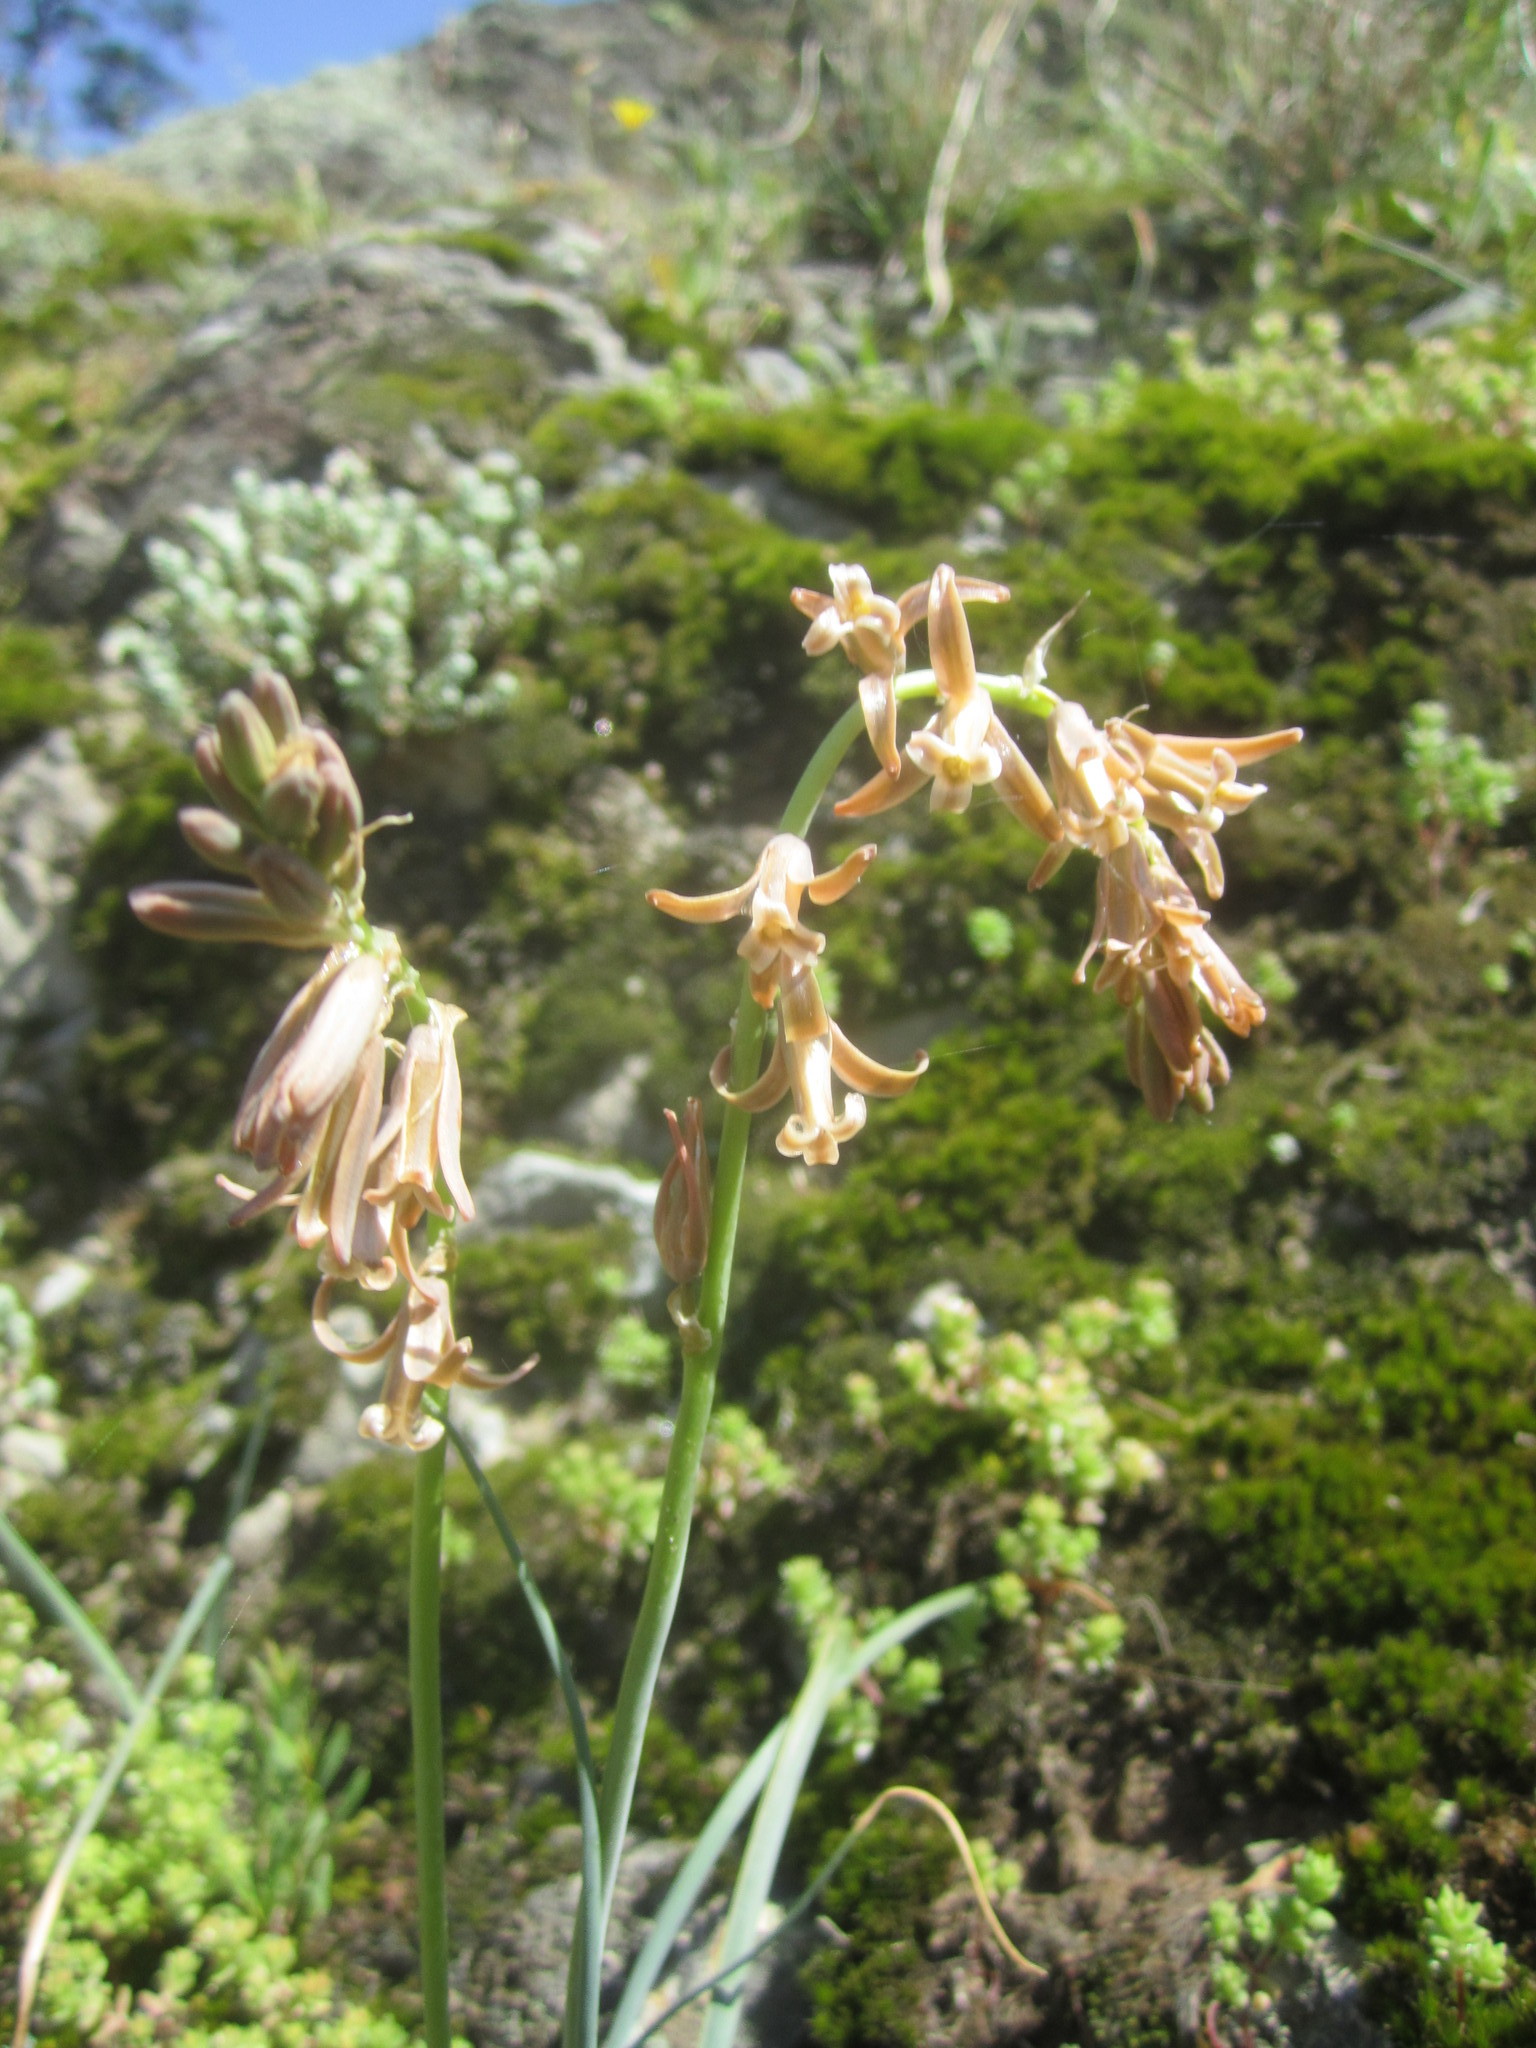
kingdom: Plantae
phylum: Tracheophyta
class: Liliopsida
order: Asparagales
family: Asparagaceae
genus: Dipcadi
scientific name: Dipcadi serotinum
